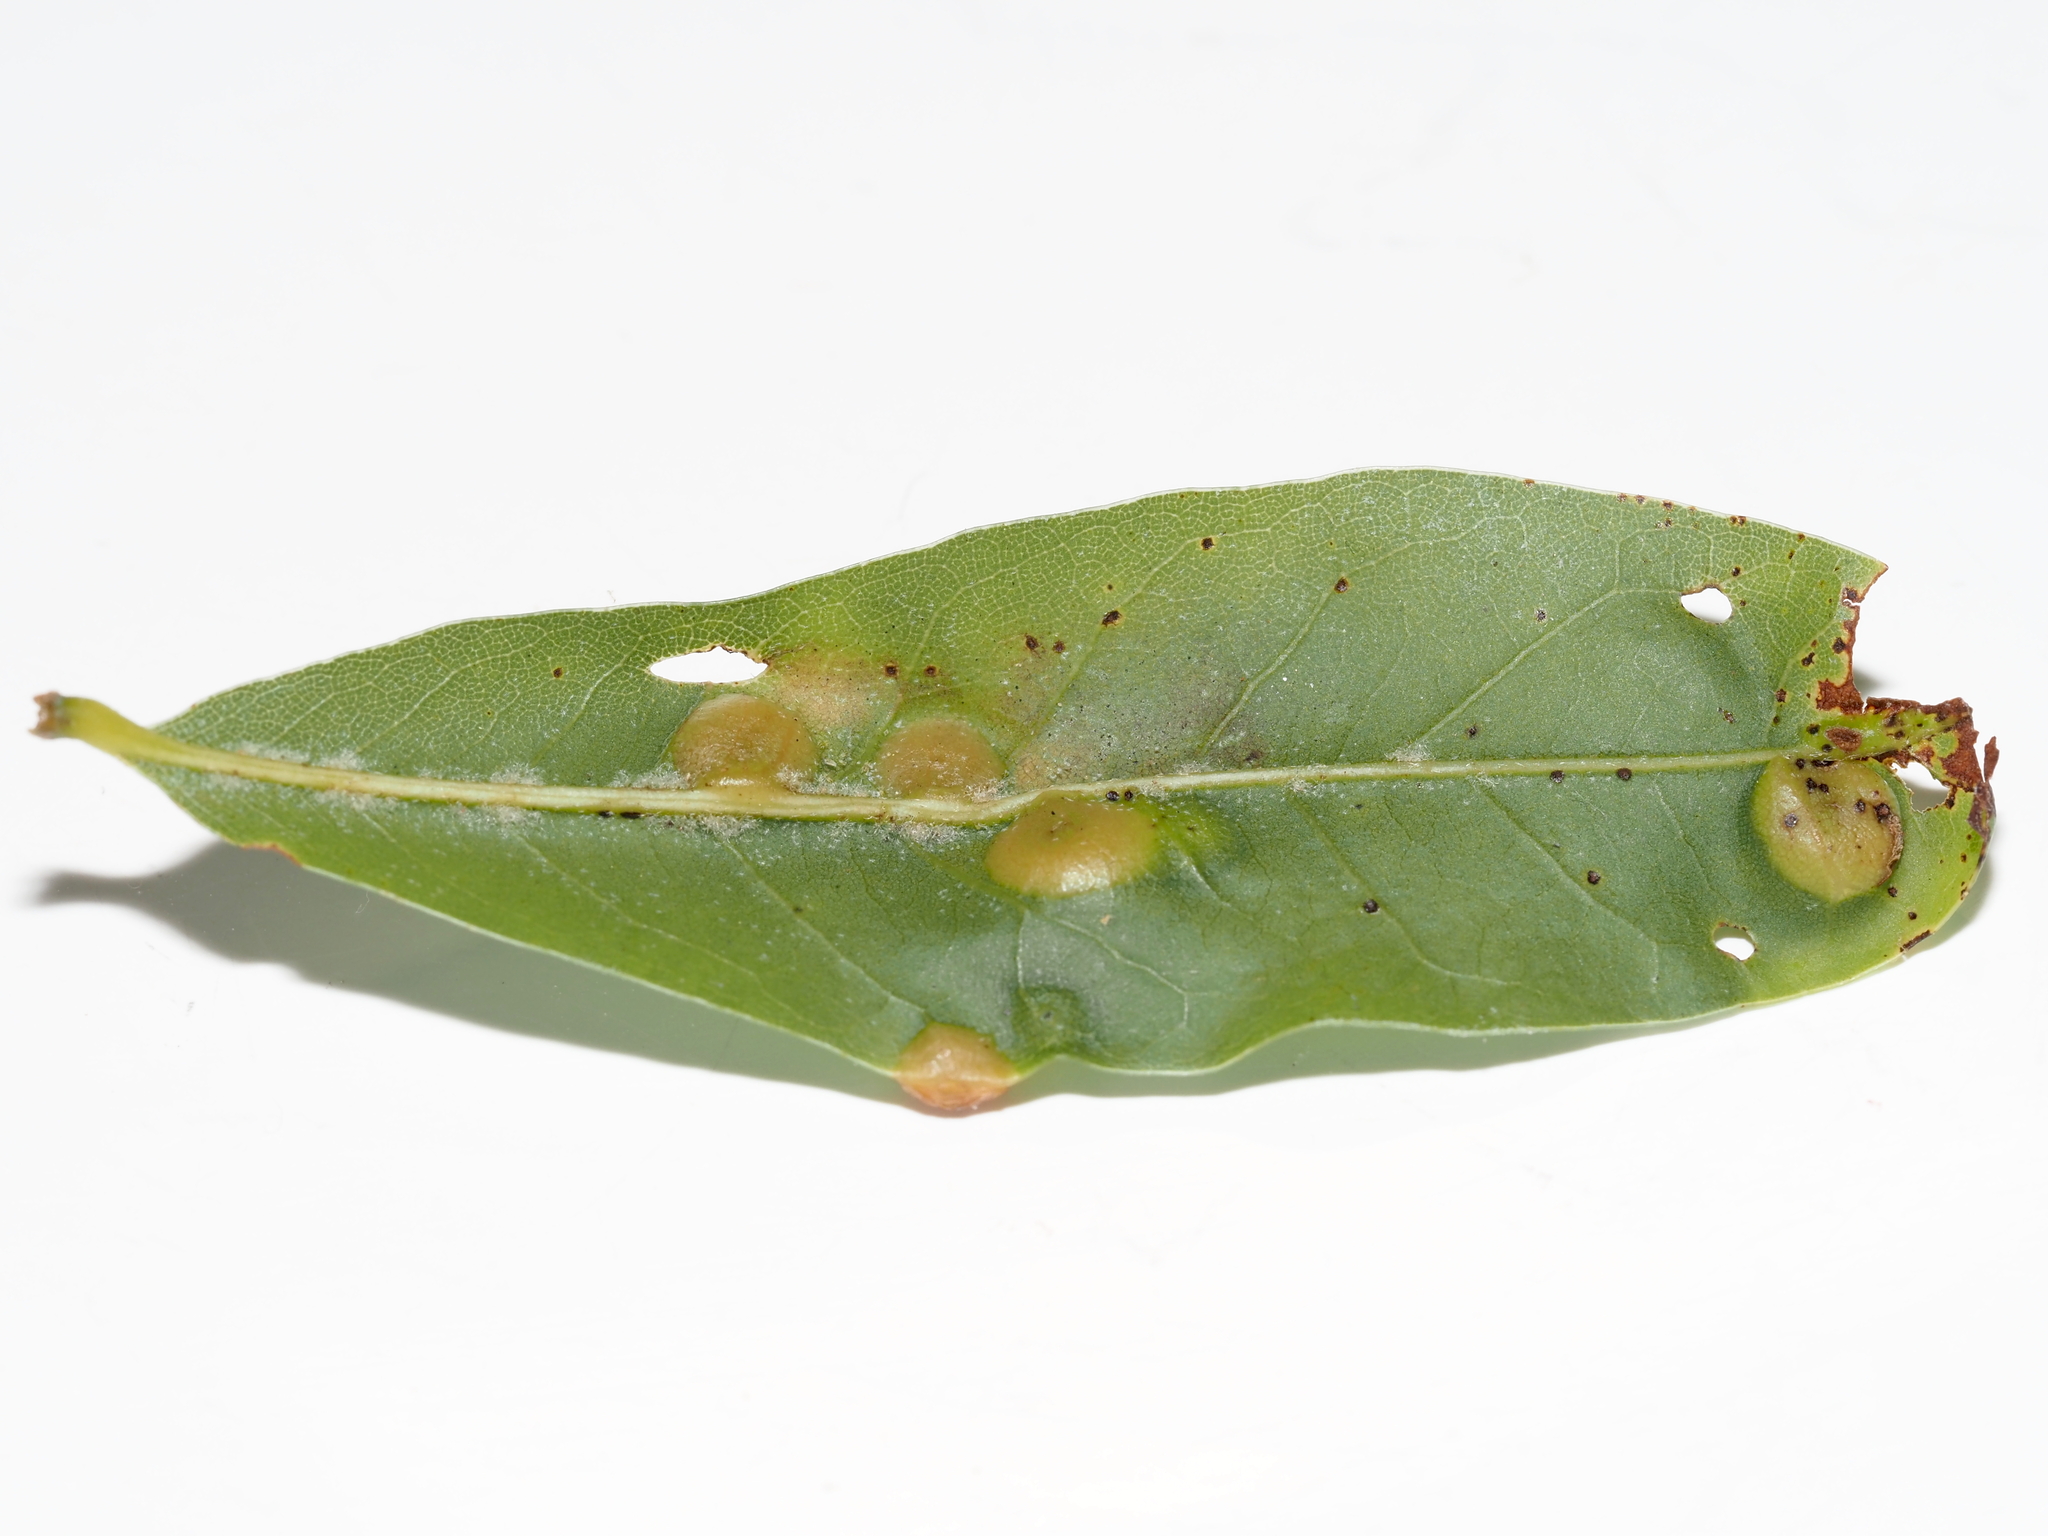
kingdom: Animalia
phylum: Arthropoda
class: Insecta
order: Diptera
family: Cecidomyiidae
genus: Polystepha
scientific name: Polystepha pilulae
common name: Oak leaf gall midge
